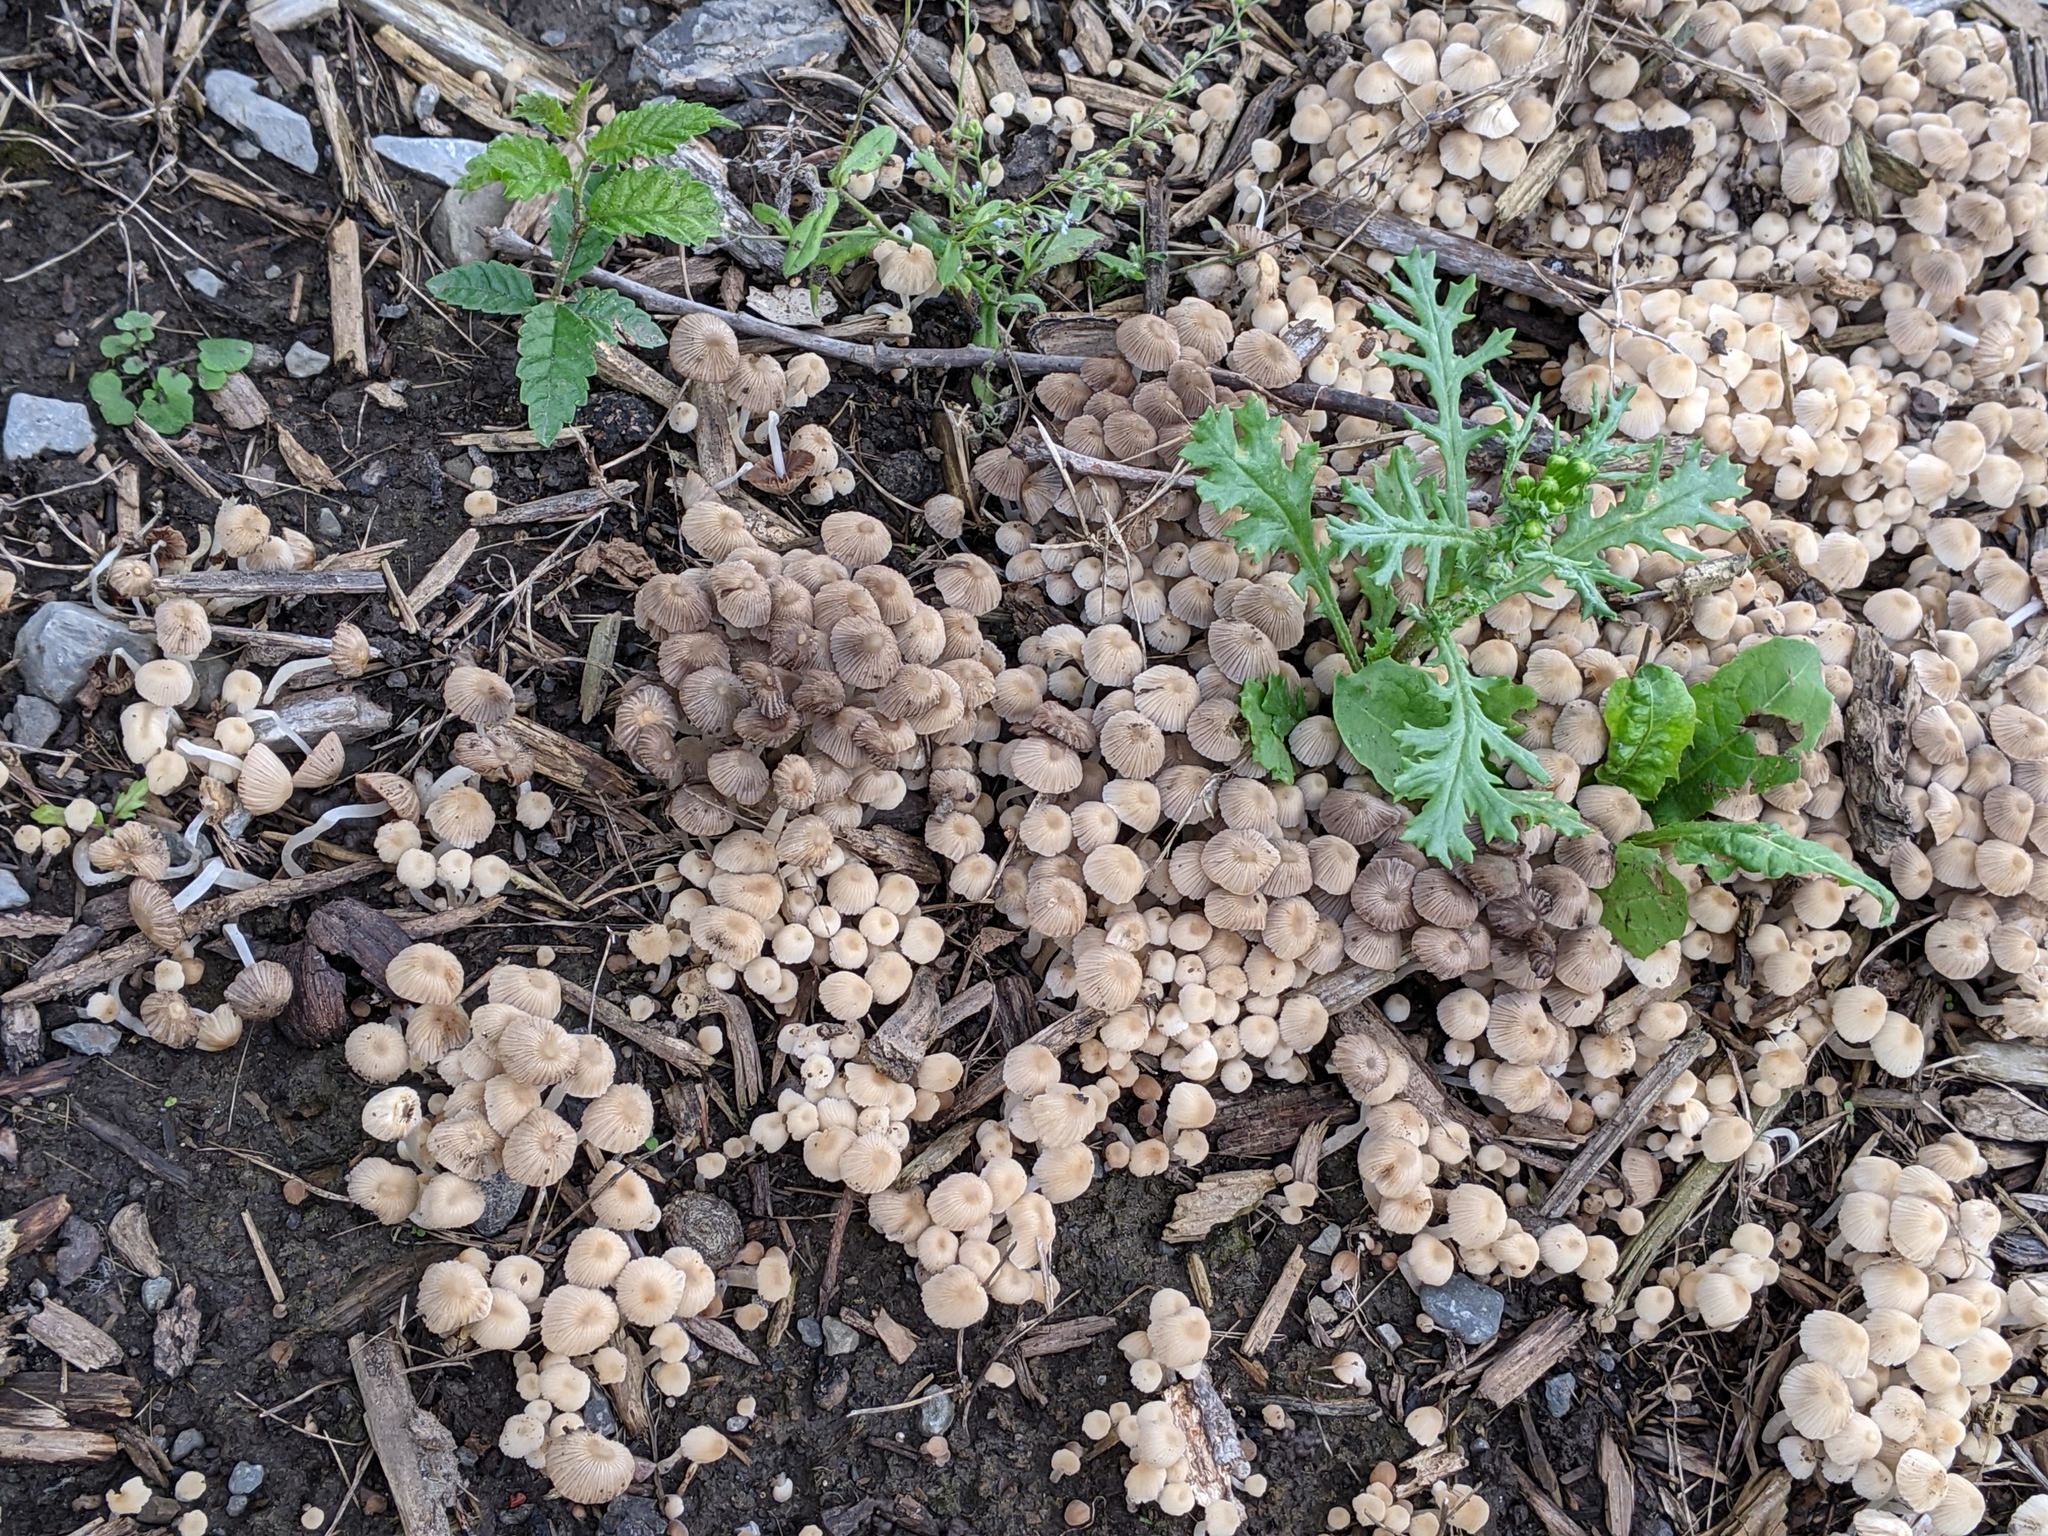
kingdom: Fungi
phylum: Basidiomycota
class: Agaricomycetes
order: Agaricales
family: Psathyrellaceae
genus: Coprinellus
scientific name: Coprinellus disseminatus
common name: Fairies' bonnets
